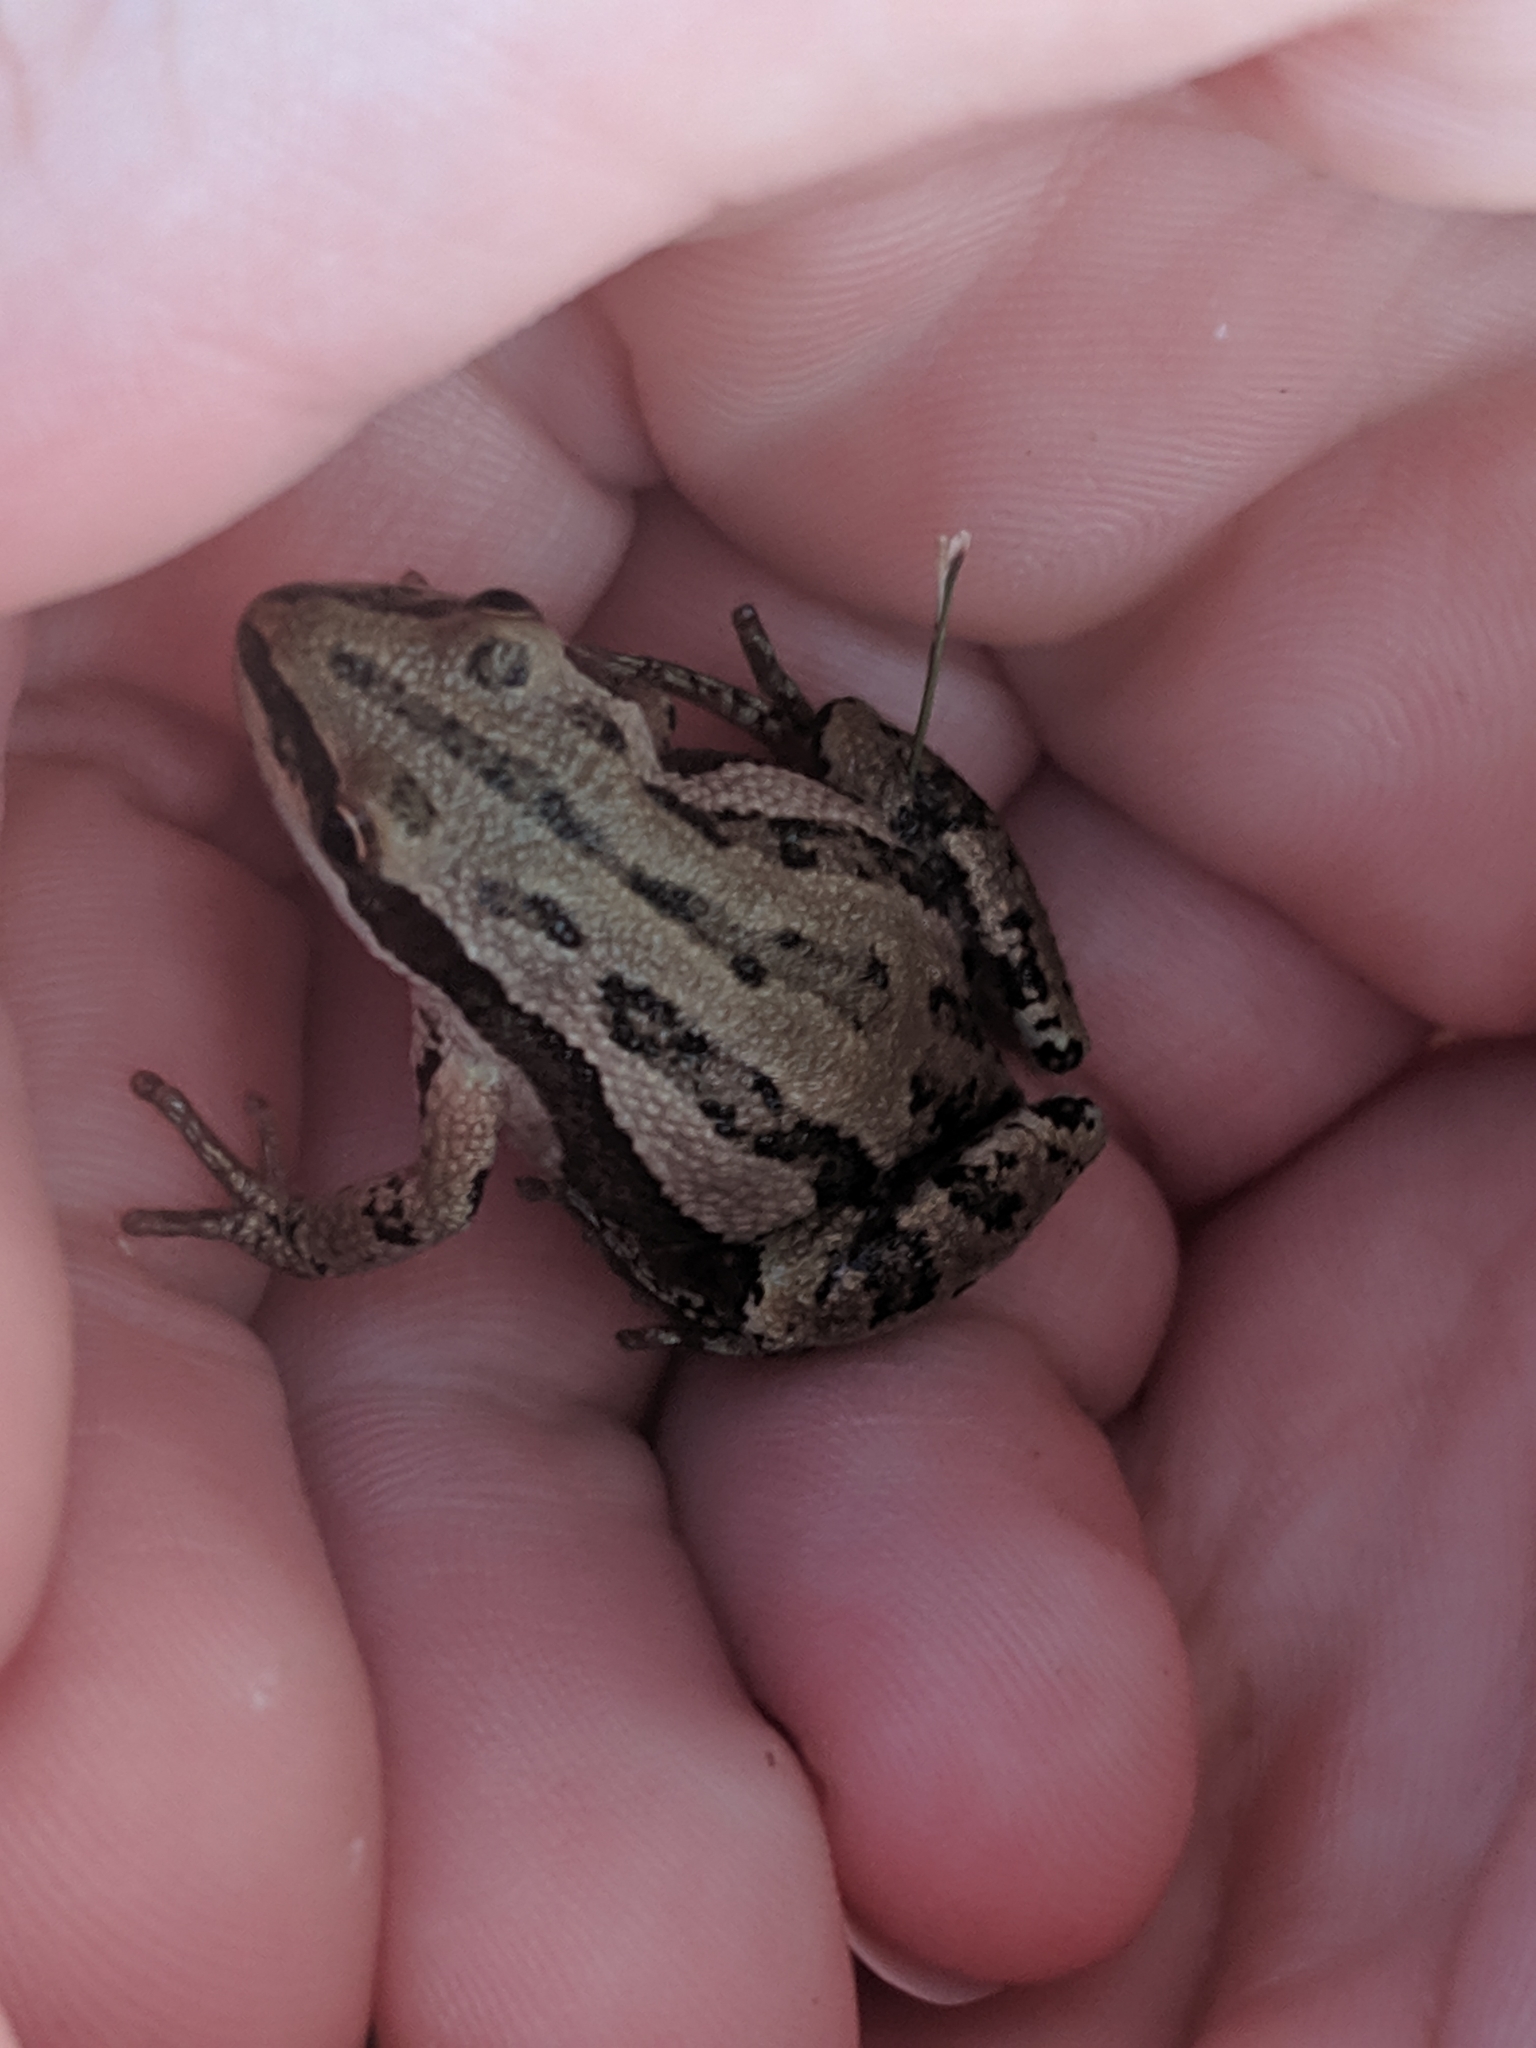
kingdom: Animalia
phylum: Chordata
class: Amphibia
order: Anura
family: Hylidae
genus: Pseudacris
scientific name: Pseudacris maculata
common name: Boreal chorus frog
